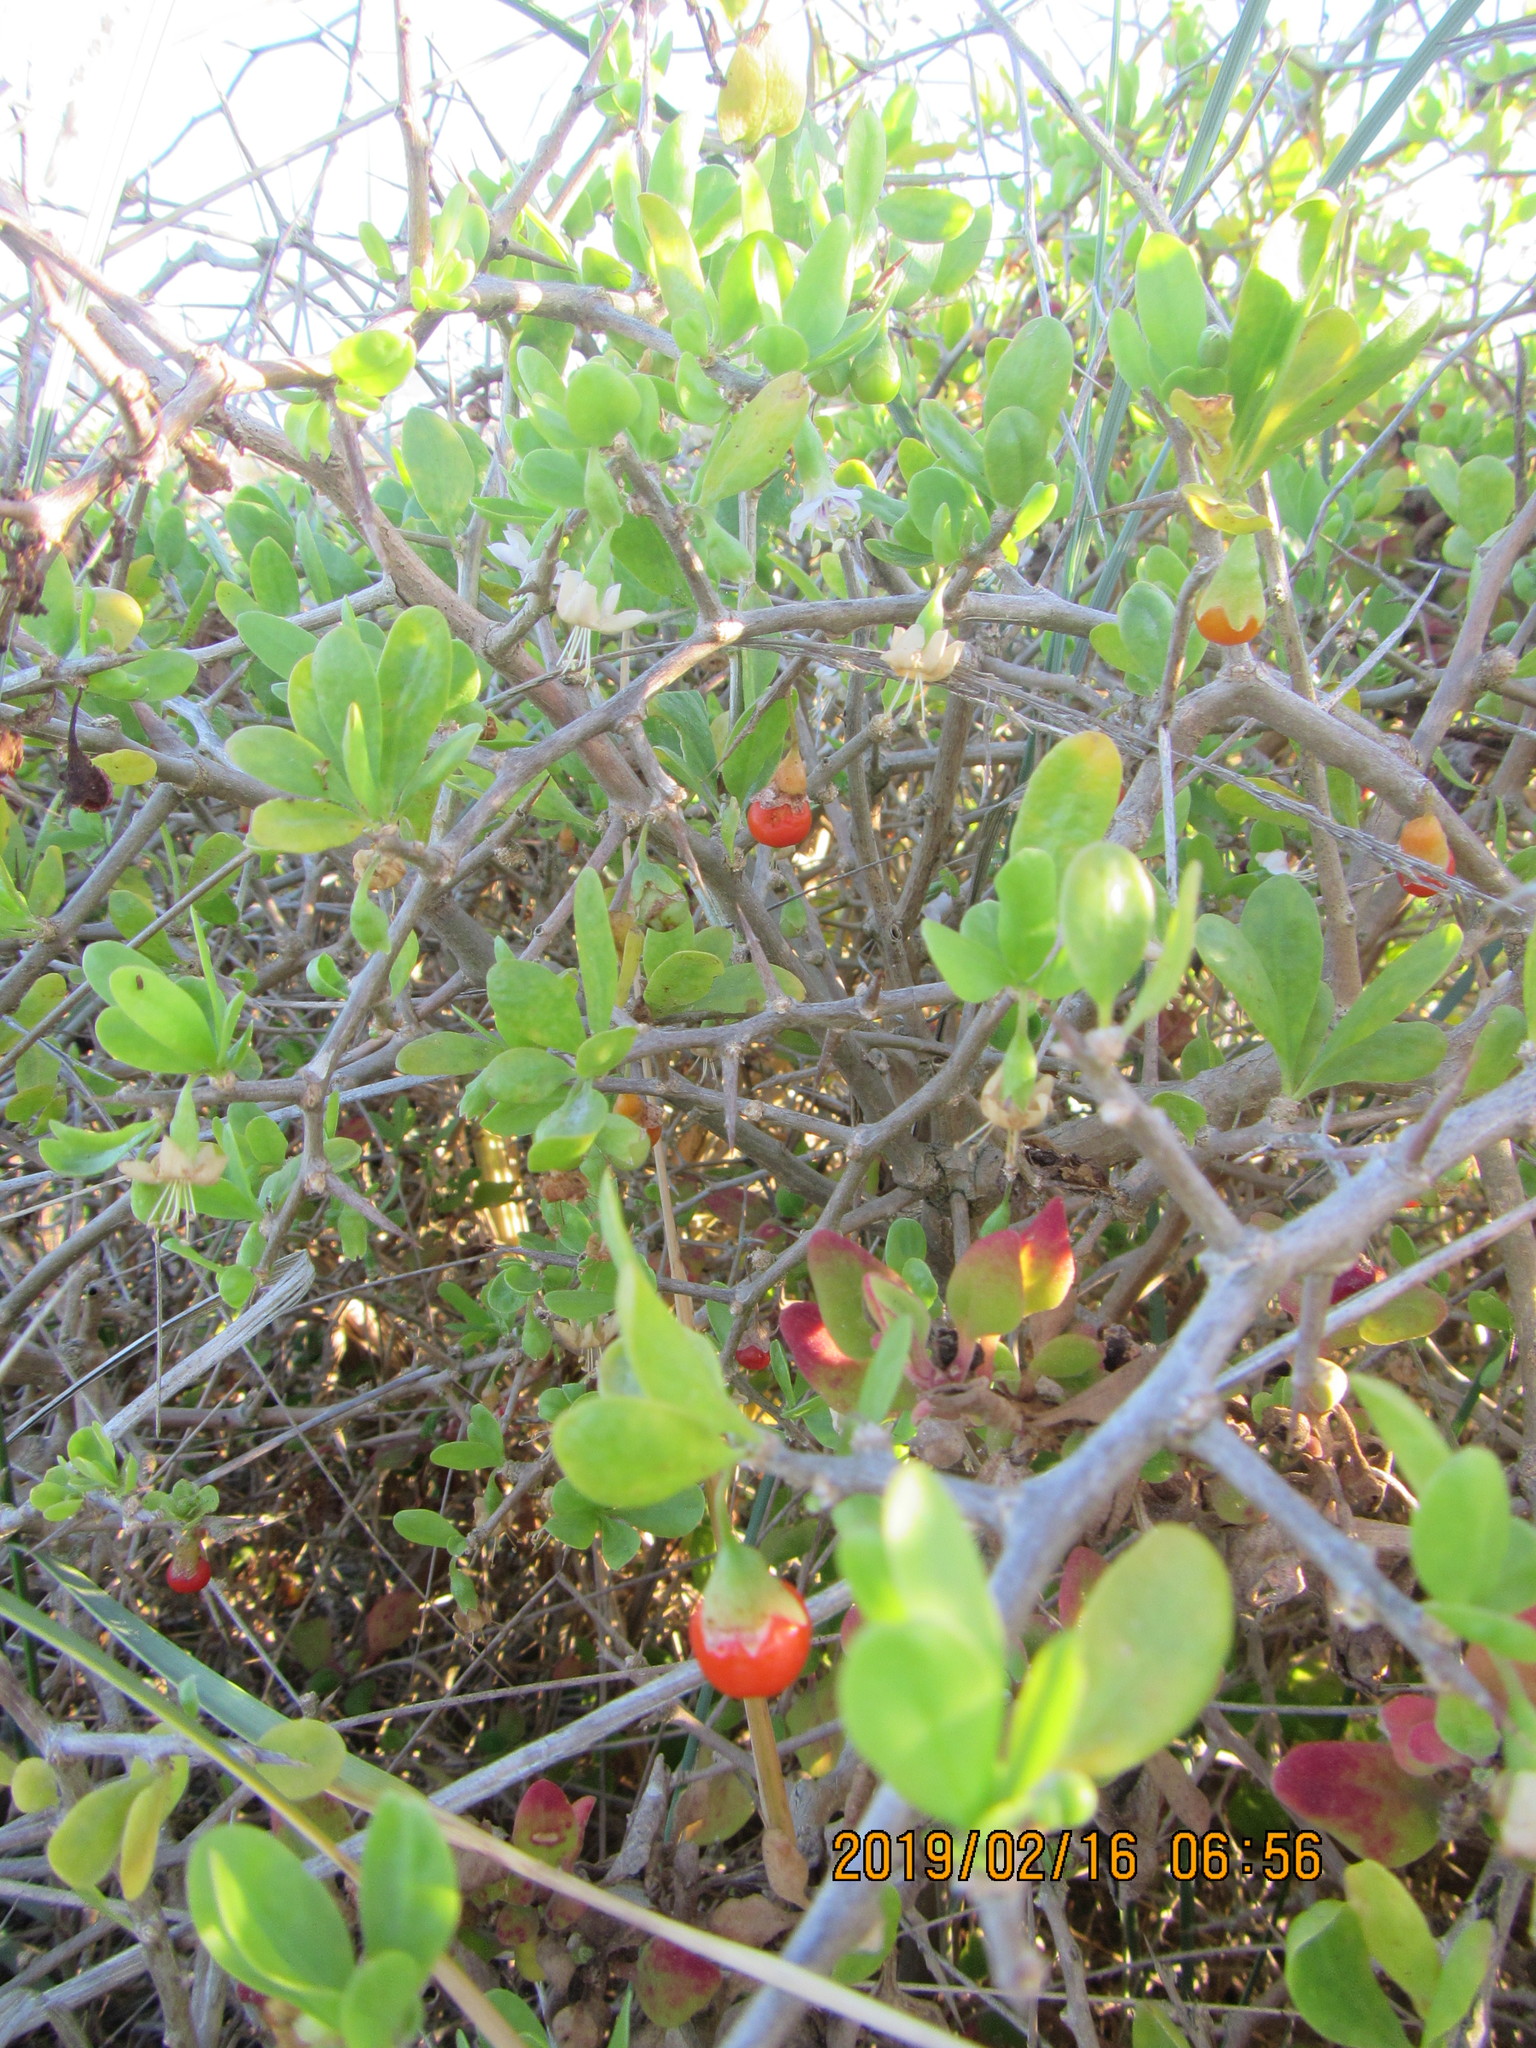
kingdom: Plantae
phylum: Tracheophyta
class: Magnoliopsida
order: Solanales
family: Solanaceae
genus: Lycium
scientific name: Lycium ferocissimum
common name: African boxthorn
